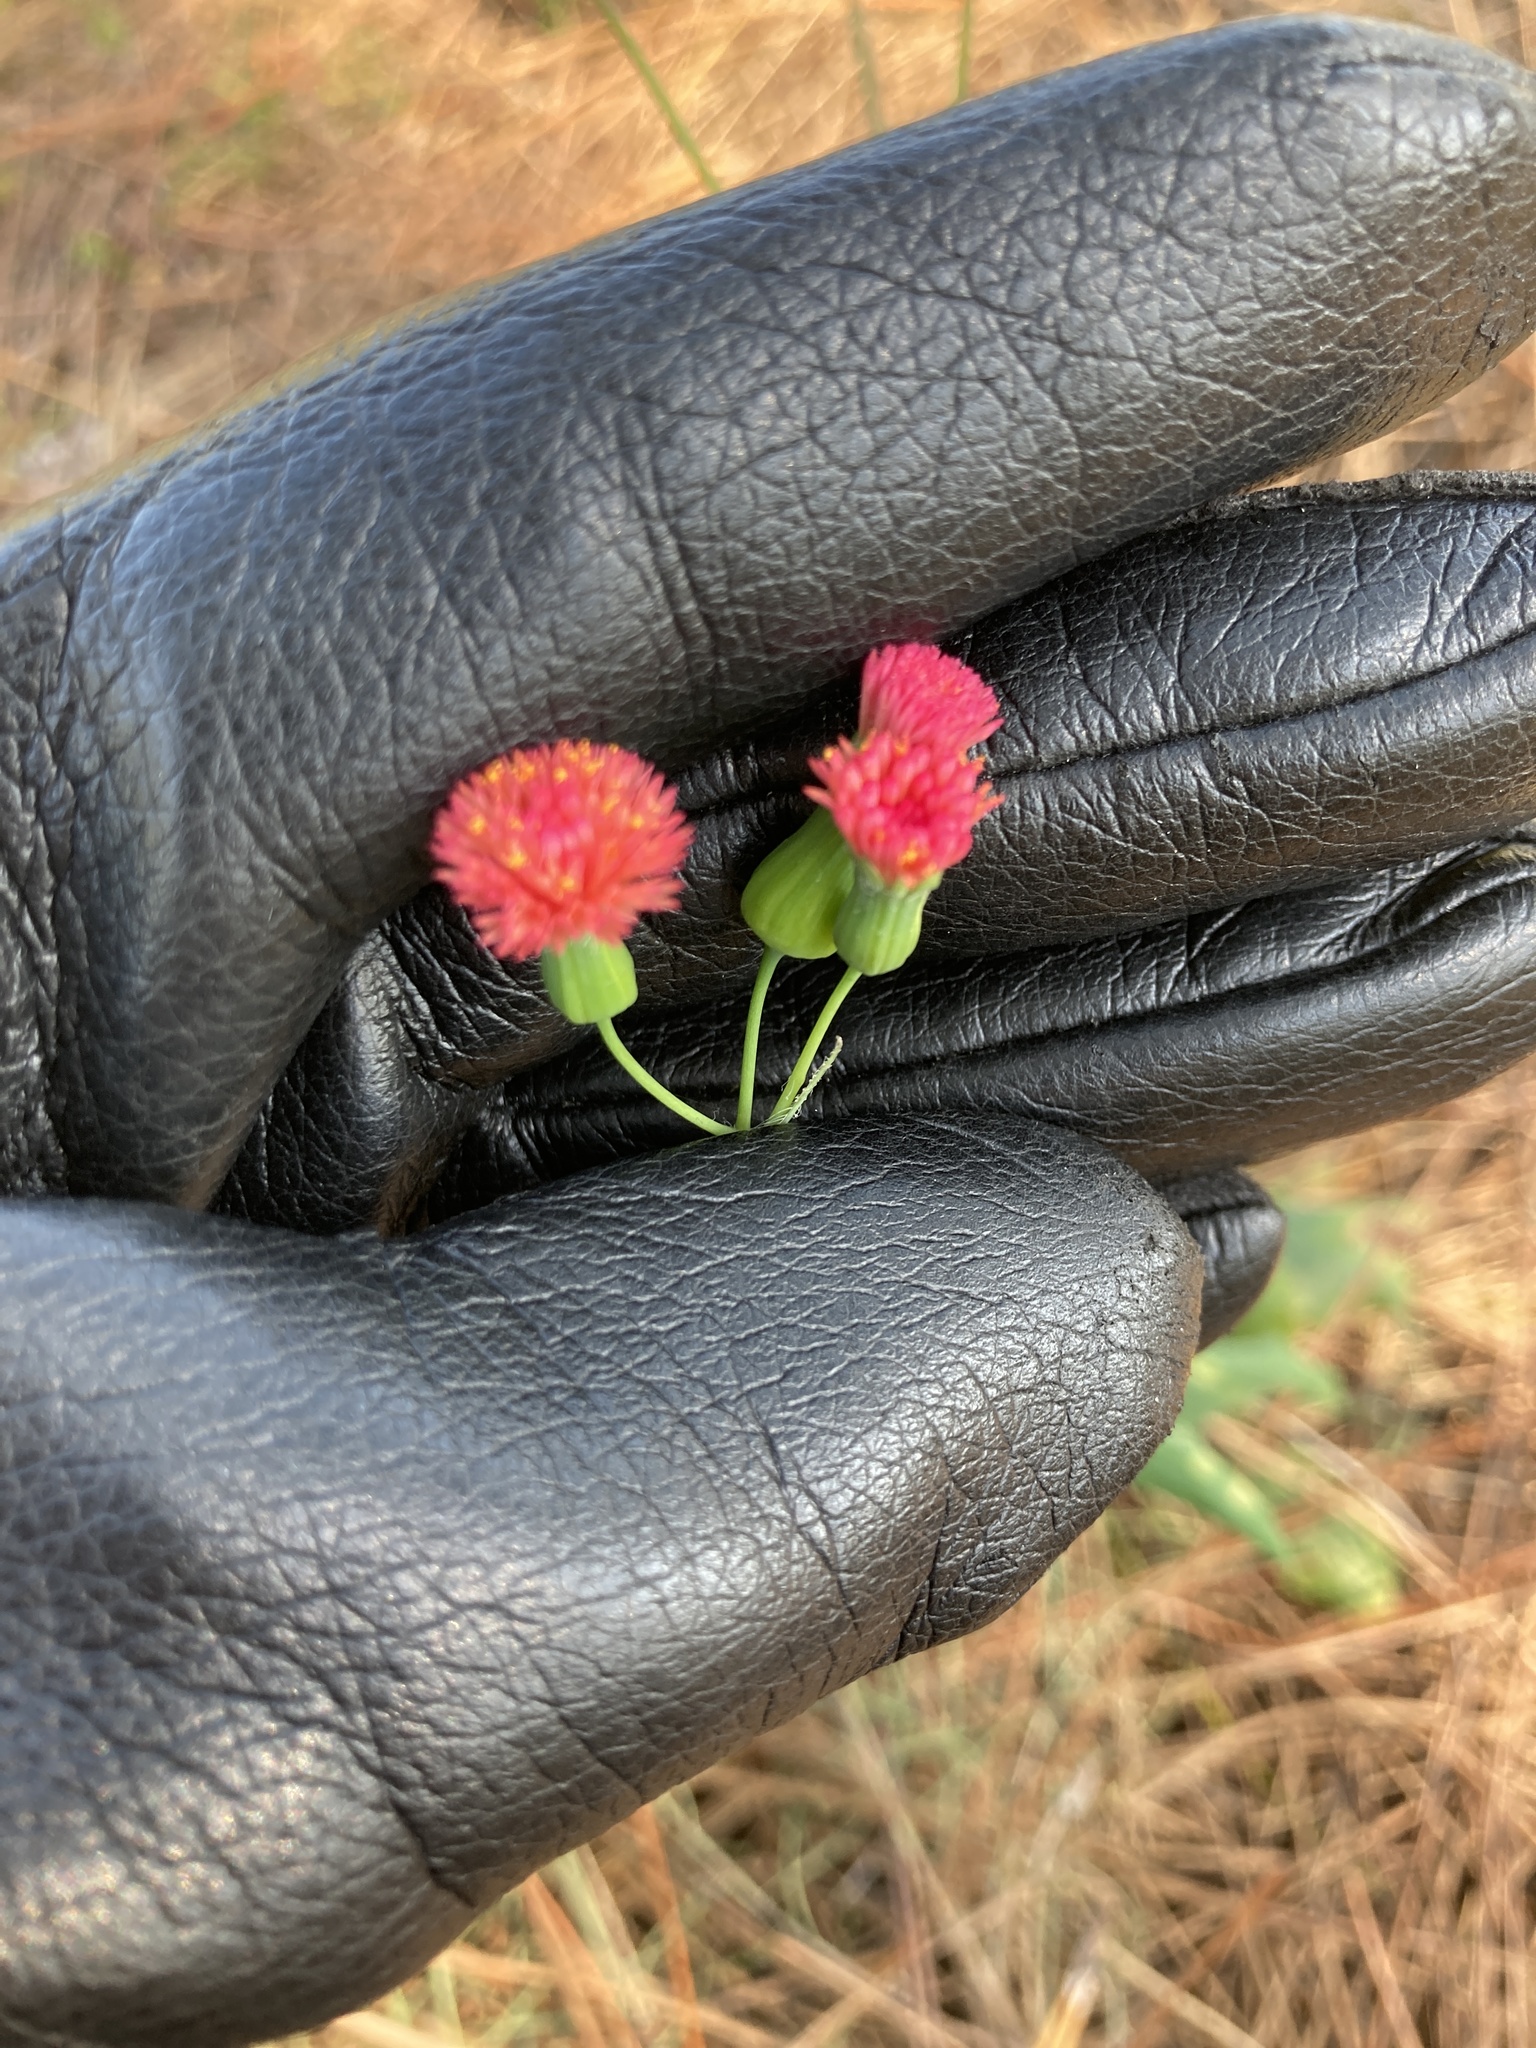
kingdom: Plantae
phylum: Tracheophyta
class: Magnoliopsida
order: Asterales
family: Asteraceae
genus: Emilia
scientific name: Emilia fosbergii
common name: Florida tasselflower
